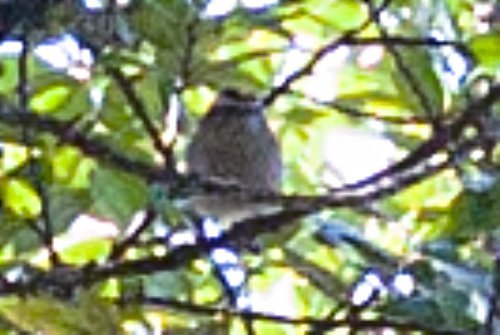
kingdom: Animalia
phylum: Chordata
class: Aves
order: Passeriformes
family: Regulidae
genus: Regulus
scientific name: Regulus satrapa
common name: Golden-crowned kinglet
